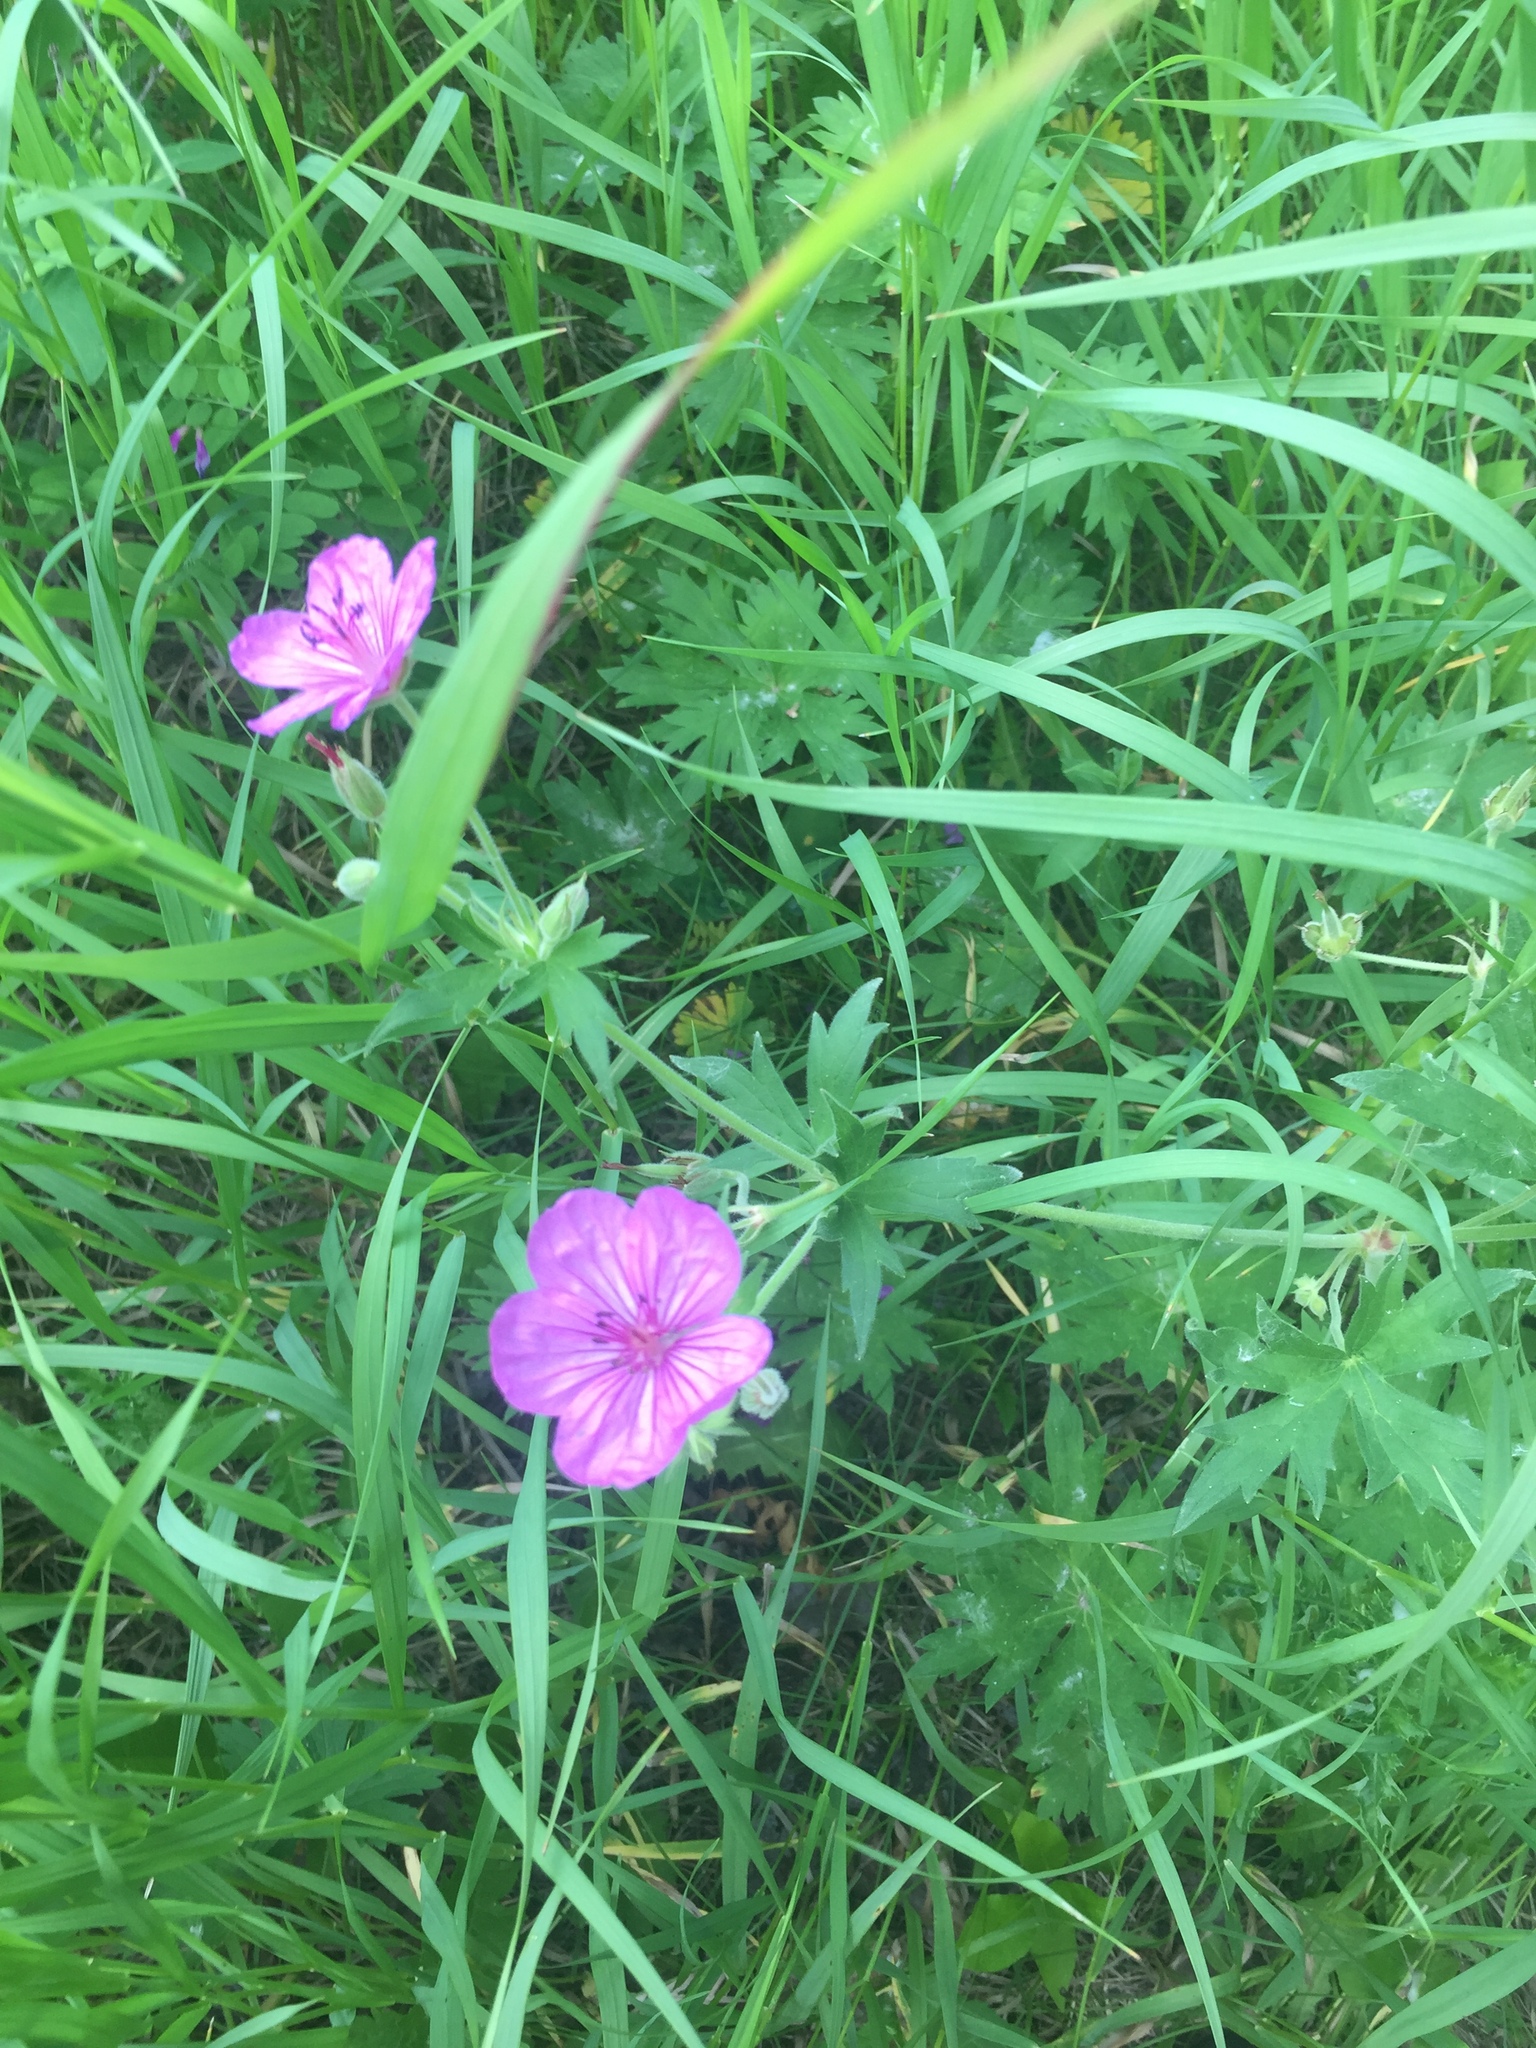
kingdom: Plantae
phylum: Tracheophyta
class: Magnoliopsida
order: Geraniales
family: Geraniaceae
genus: Geranium
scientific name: Geranium viscosissimum
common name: Purple geranium
